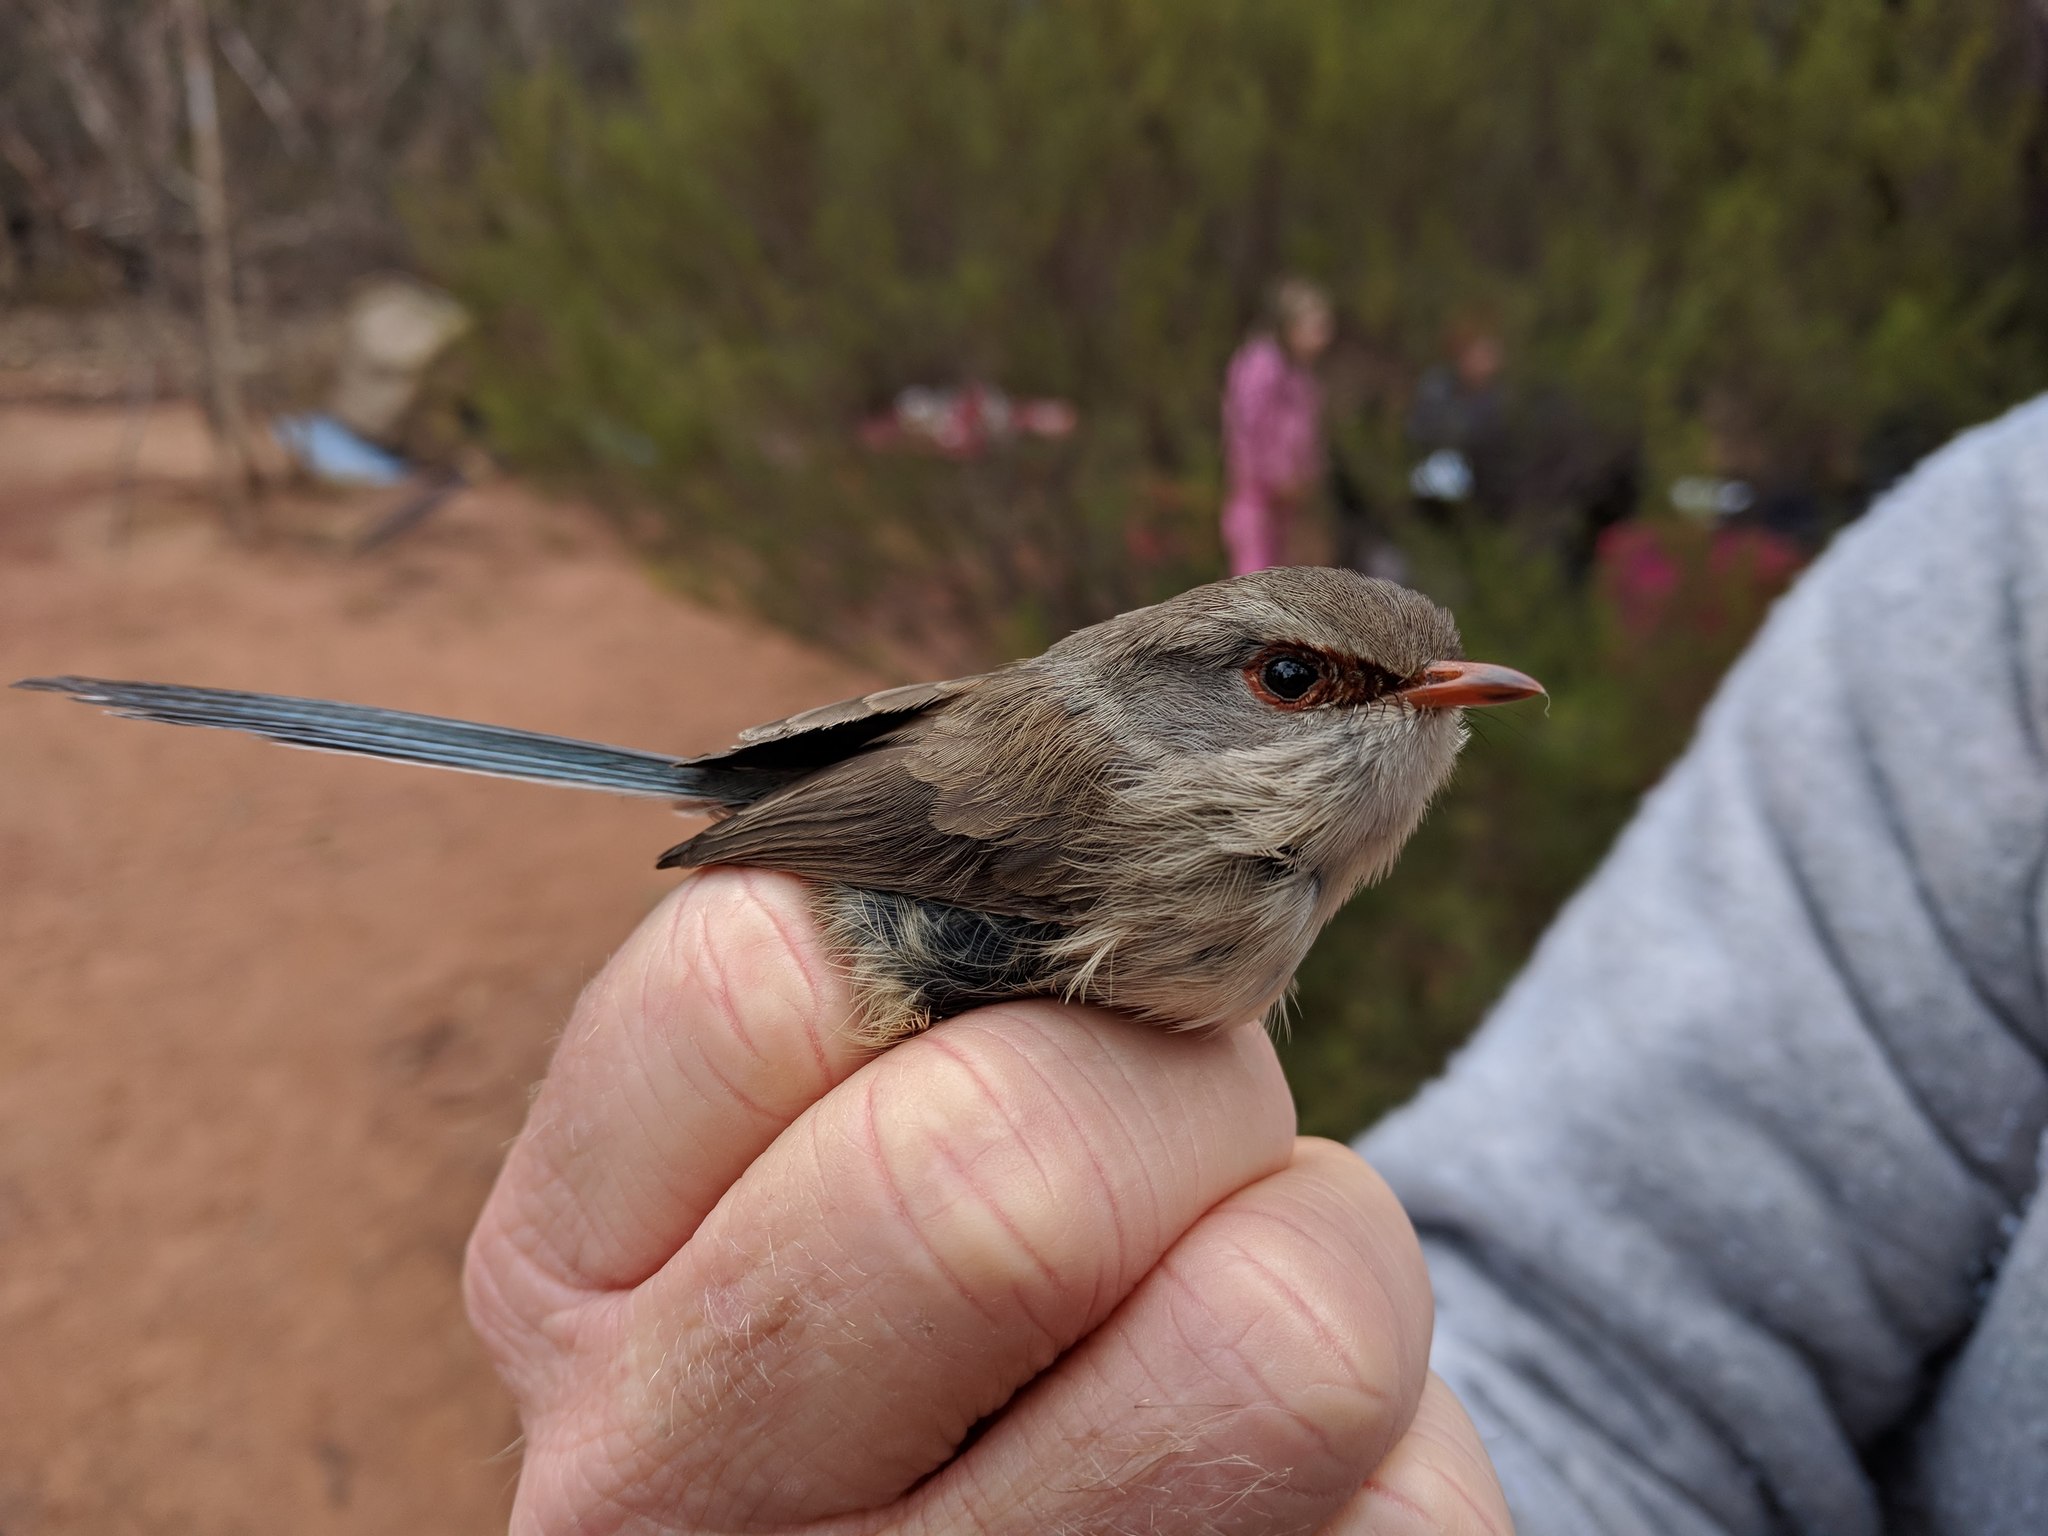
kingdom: Animalia
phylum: Chordata
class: Aves
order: Passeriformes
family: Maluridae
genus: Malurus
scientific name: Malurus assimilis
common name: Purple-backed fairywren
